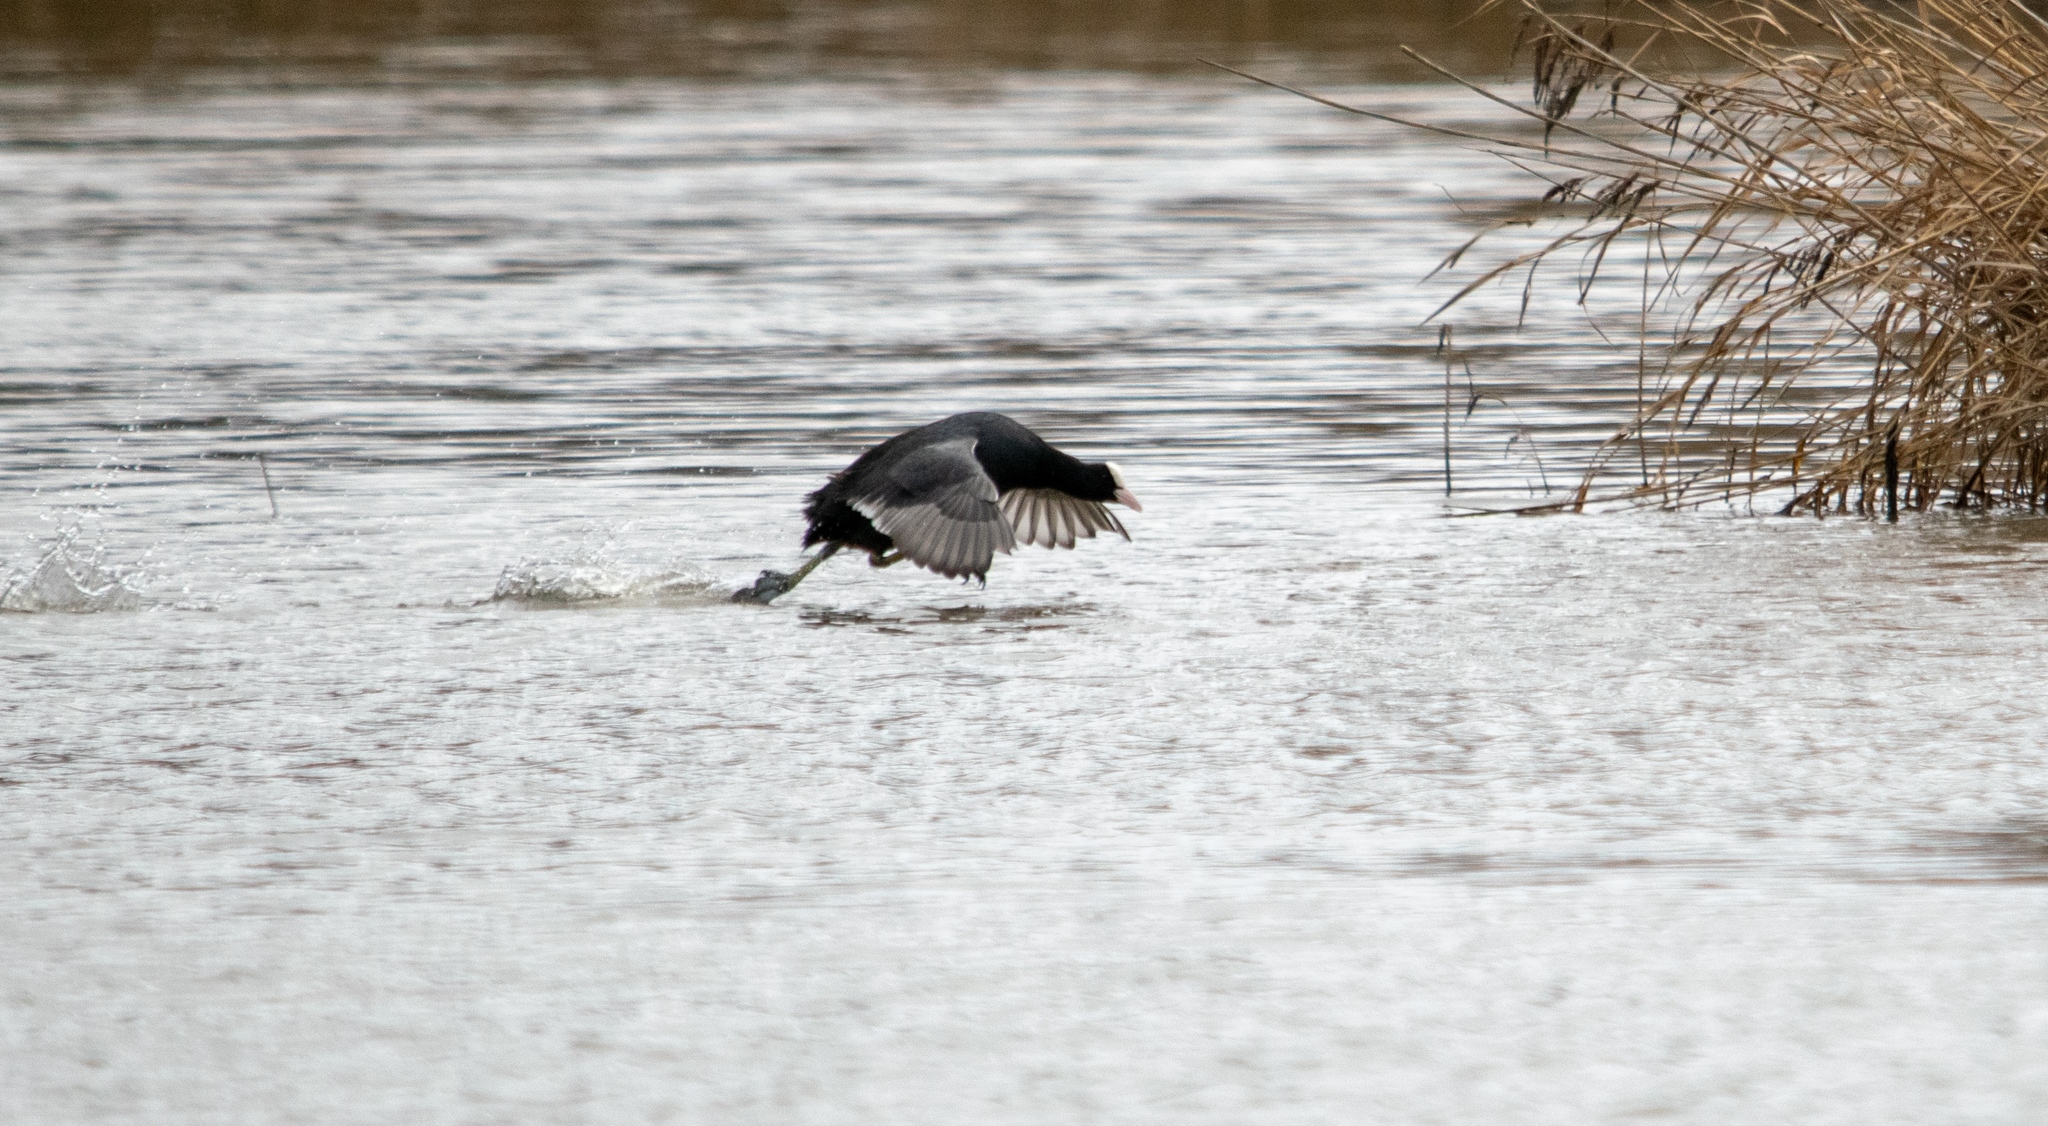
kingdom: Animalia
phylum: Chordata
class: Aves
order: Gruiformes
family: Rallidae
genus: Fulica
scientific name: Fulica atra
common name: Eurasian coot
